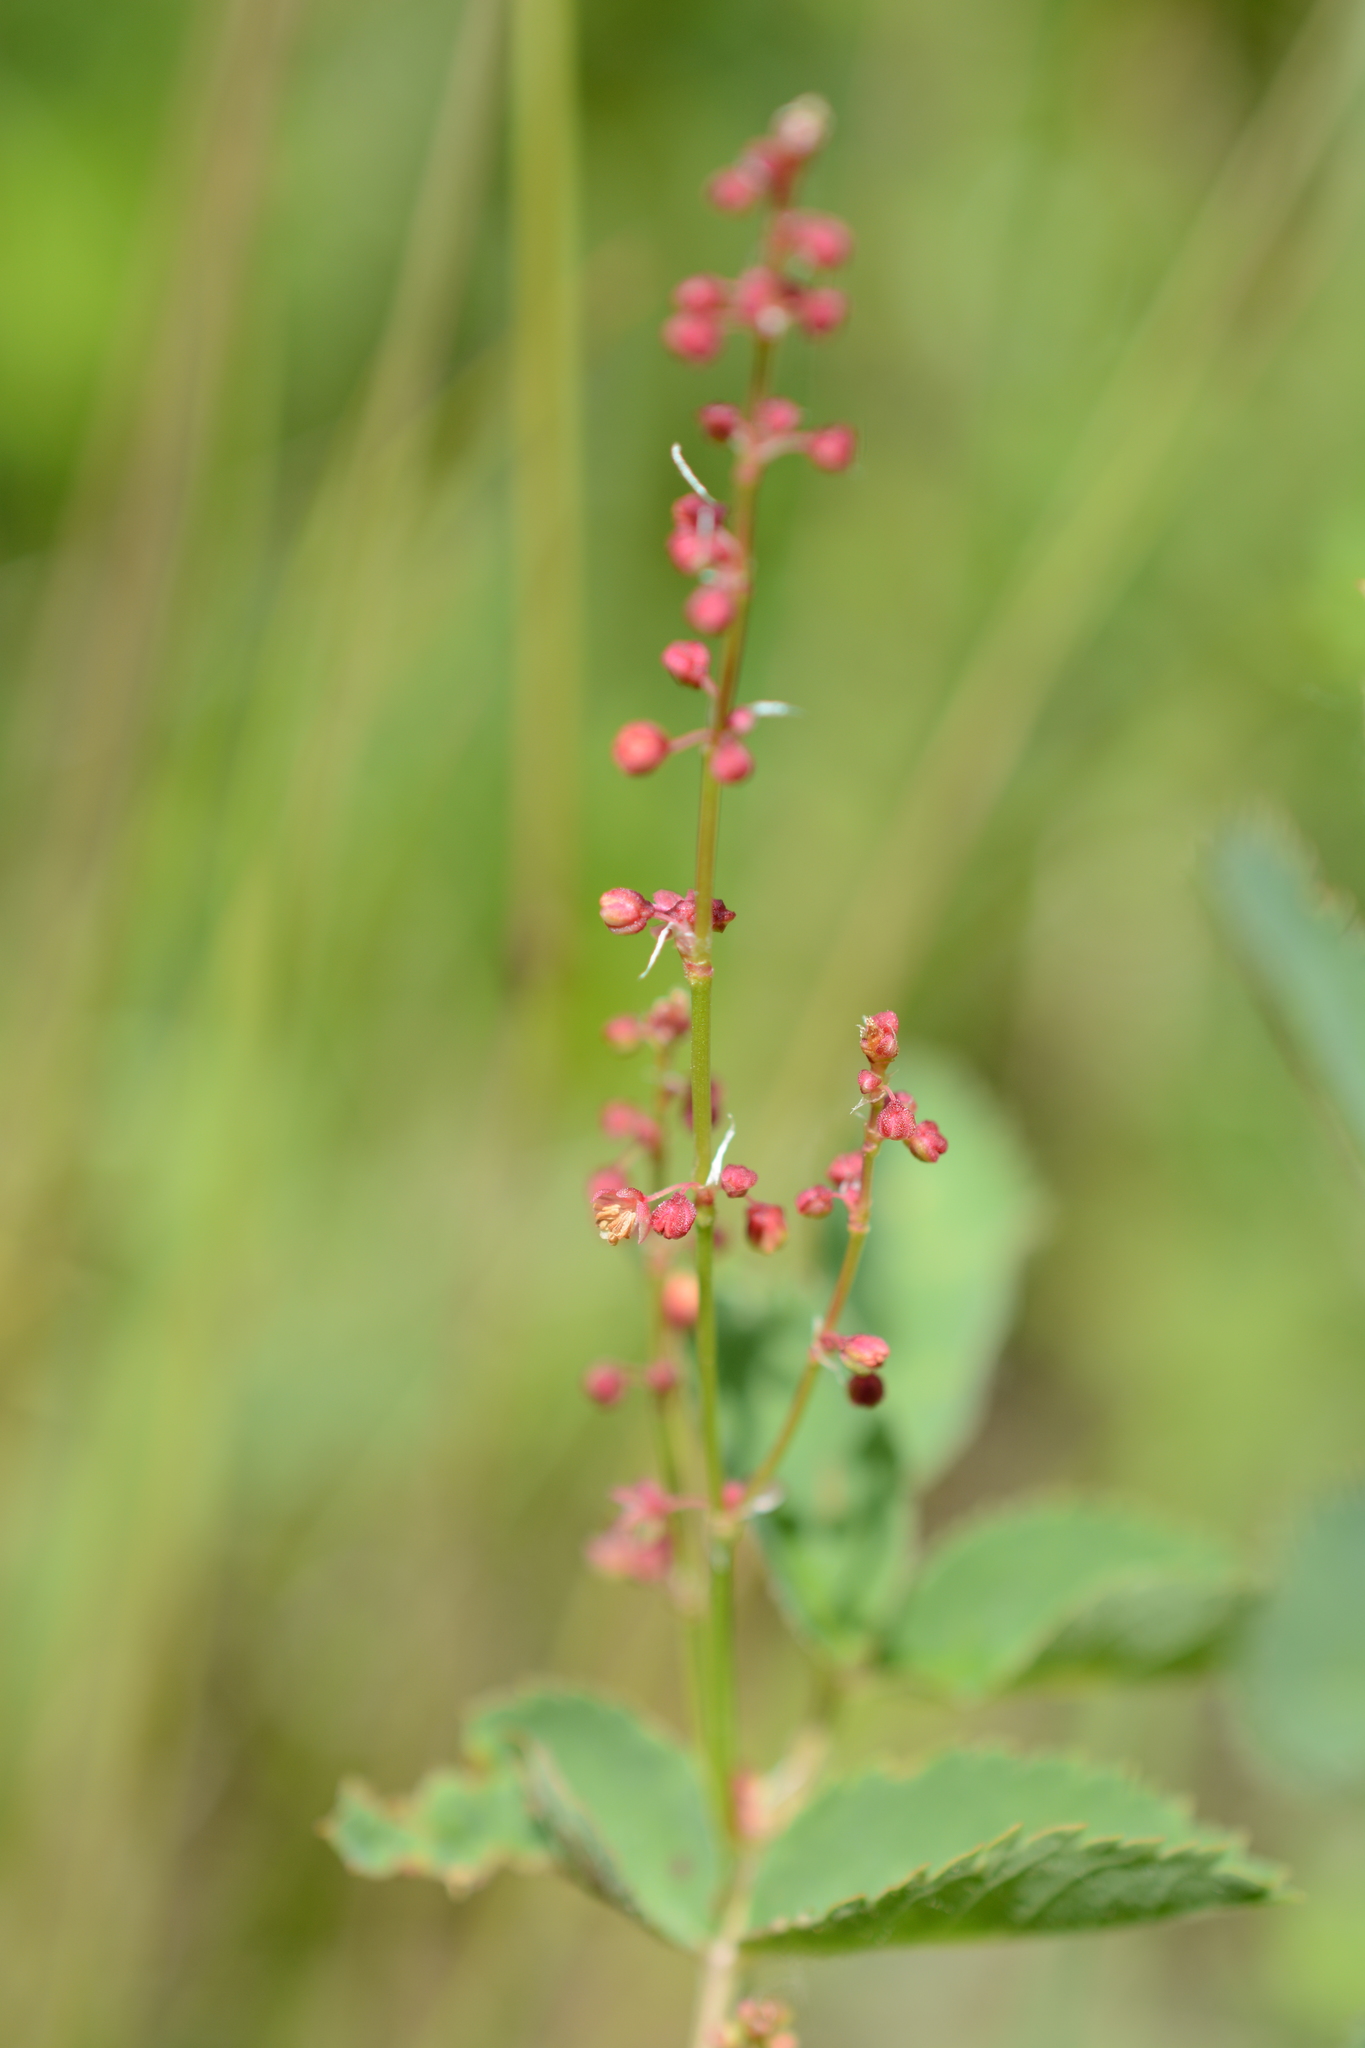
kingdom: Plantae
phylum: Tracheophyta
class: Magnoliopsida
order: Caryophyllales
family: Polygonaceae
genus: Rumex
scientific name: Rumex acetosella
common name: Common sheep sorrel
